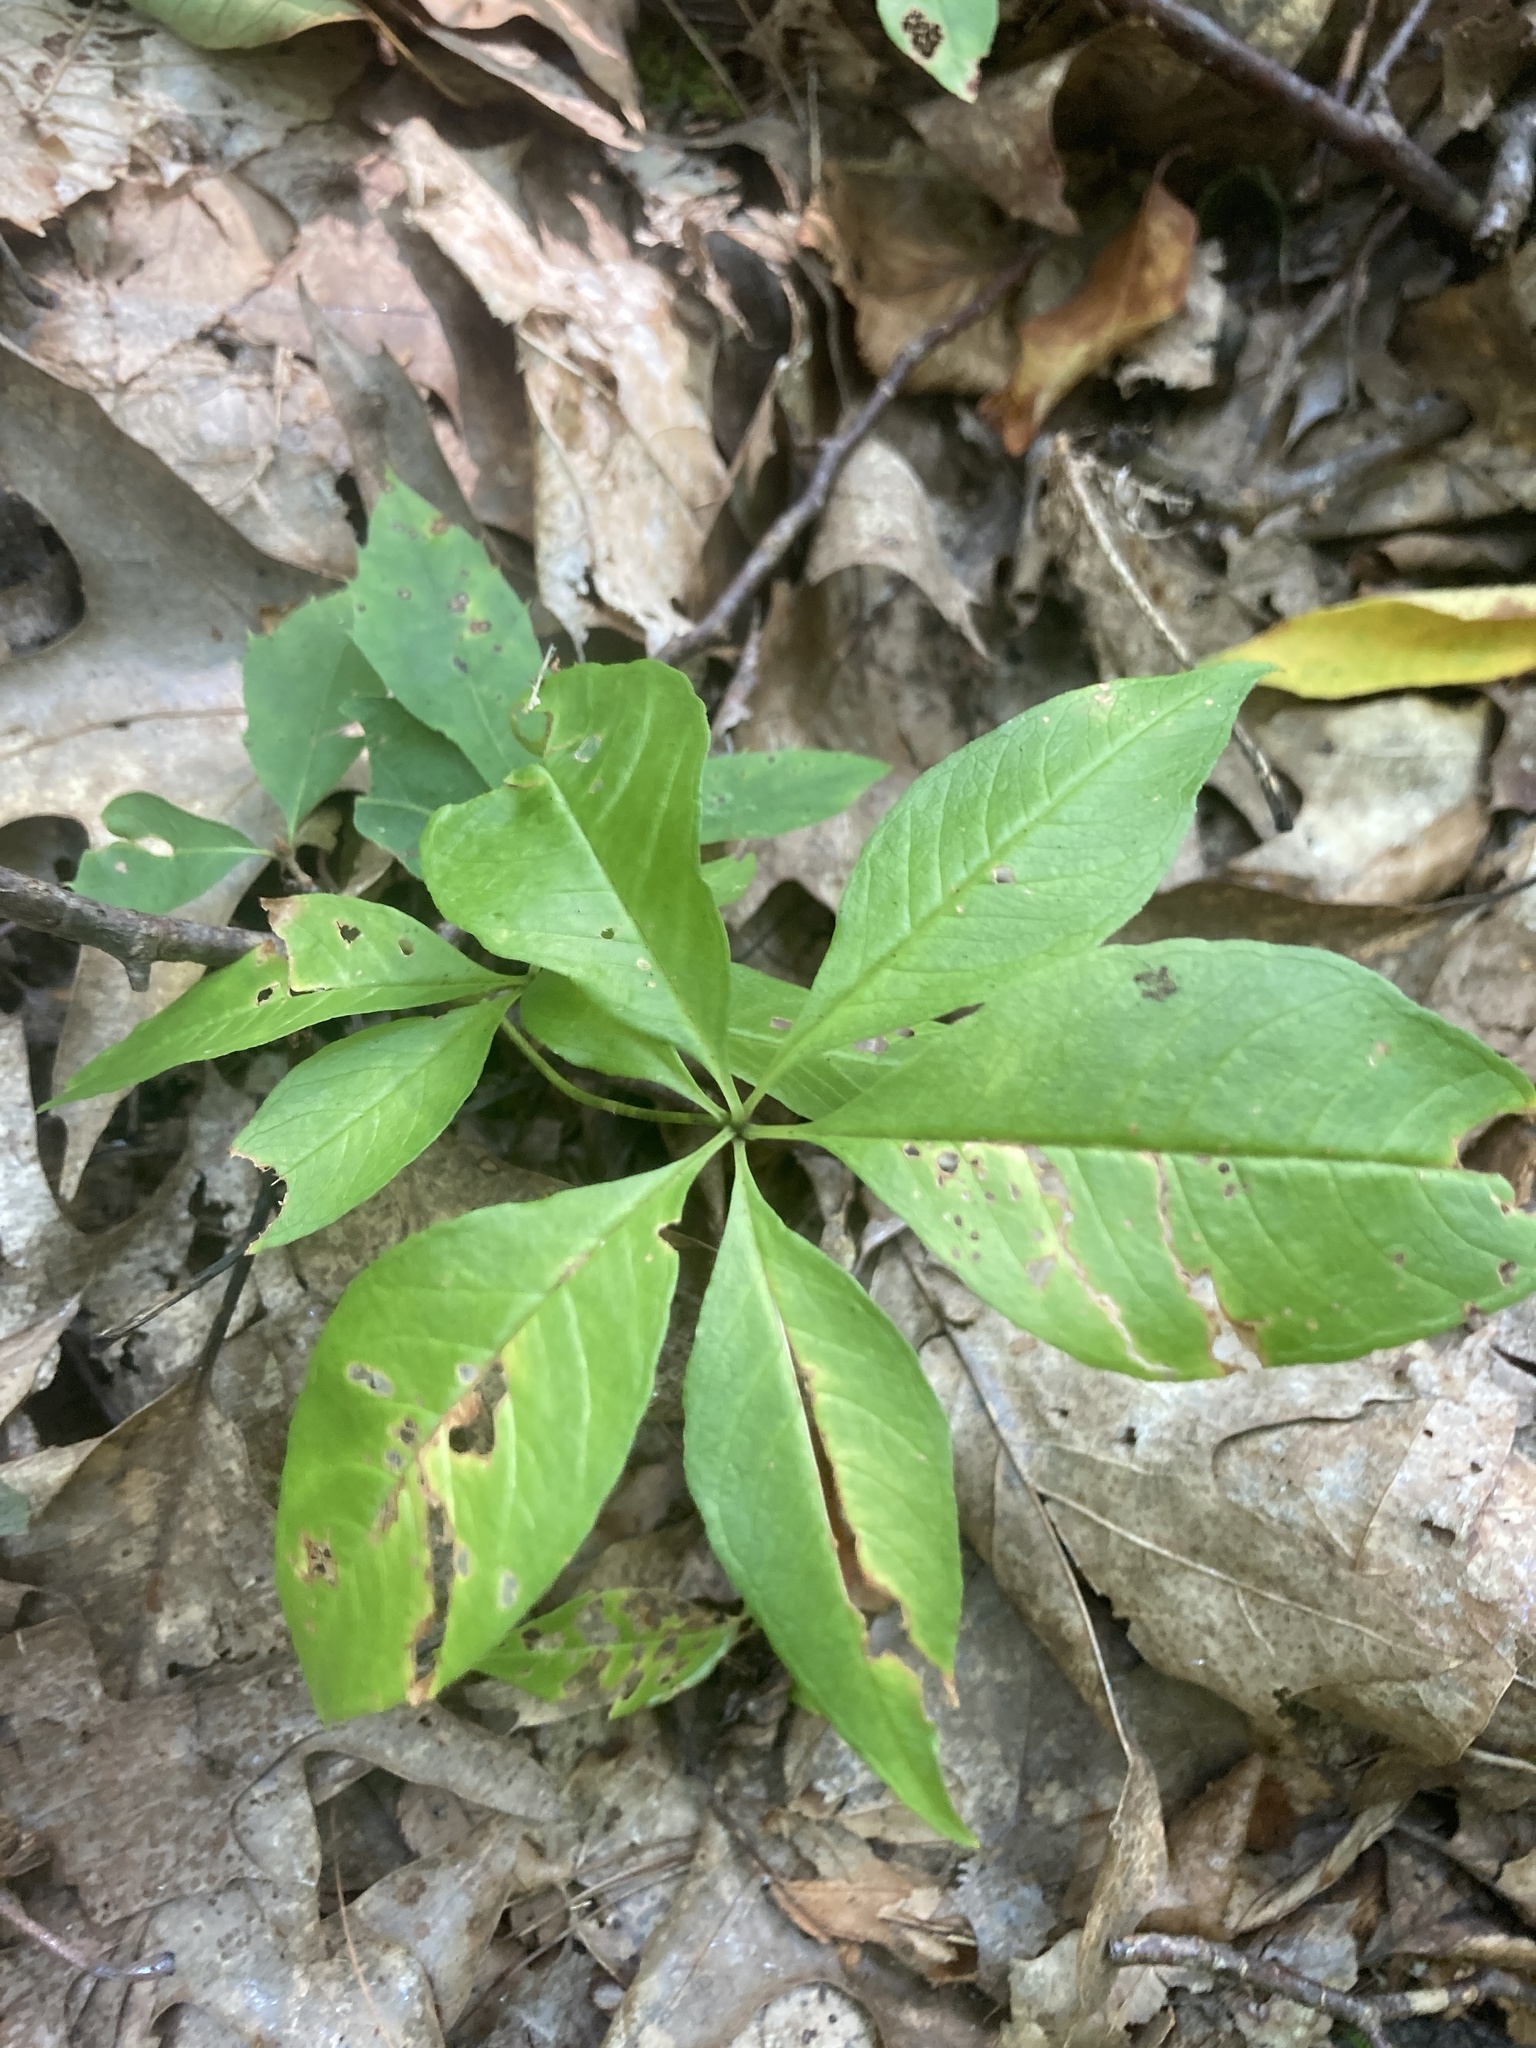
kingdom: Plantae
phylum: Tracheophyta
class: Magnoliopsida
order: Ericales
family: Primulaceae
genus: Lysimachia
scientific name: Lysimachia borealis
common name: American starflower
